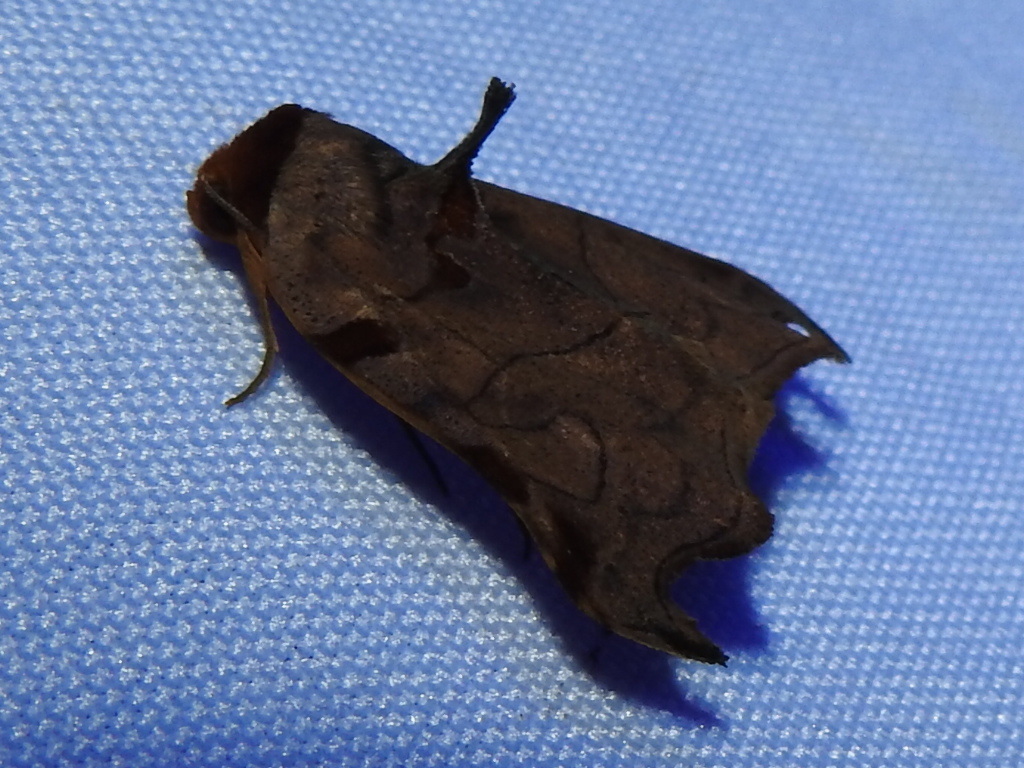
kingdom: Animalia
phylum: Arthropoda
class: Insecta
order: Lepidoptera
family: Erebidae
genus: Lephana
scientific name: Lephana metacrocea
